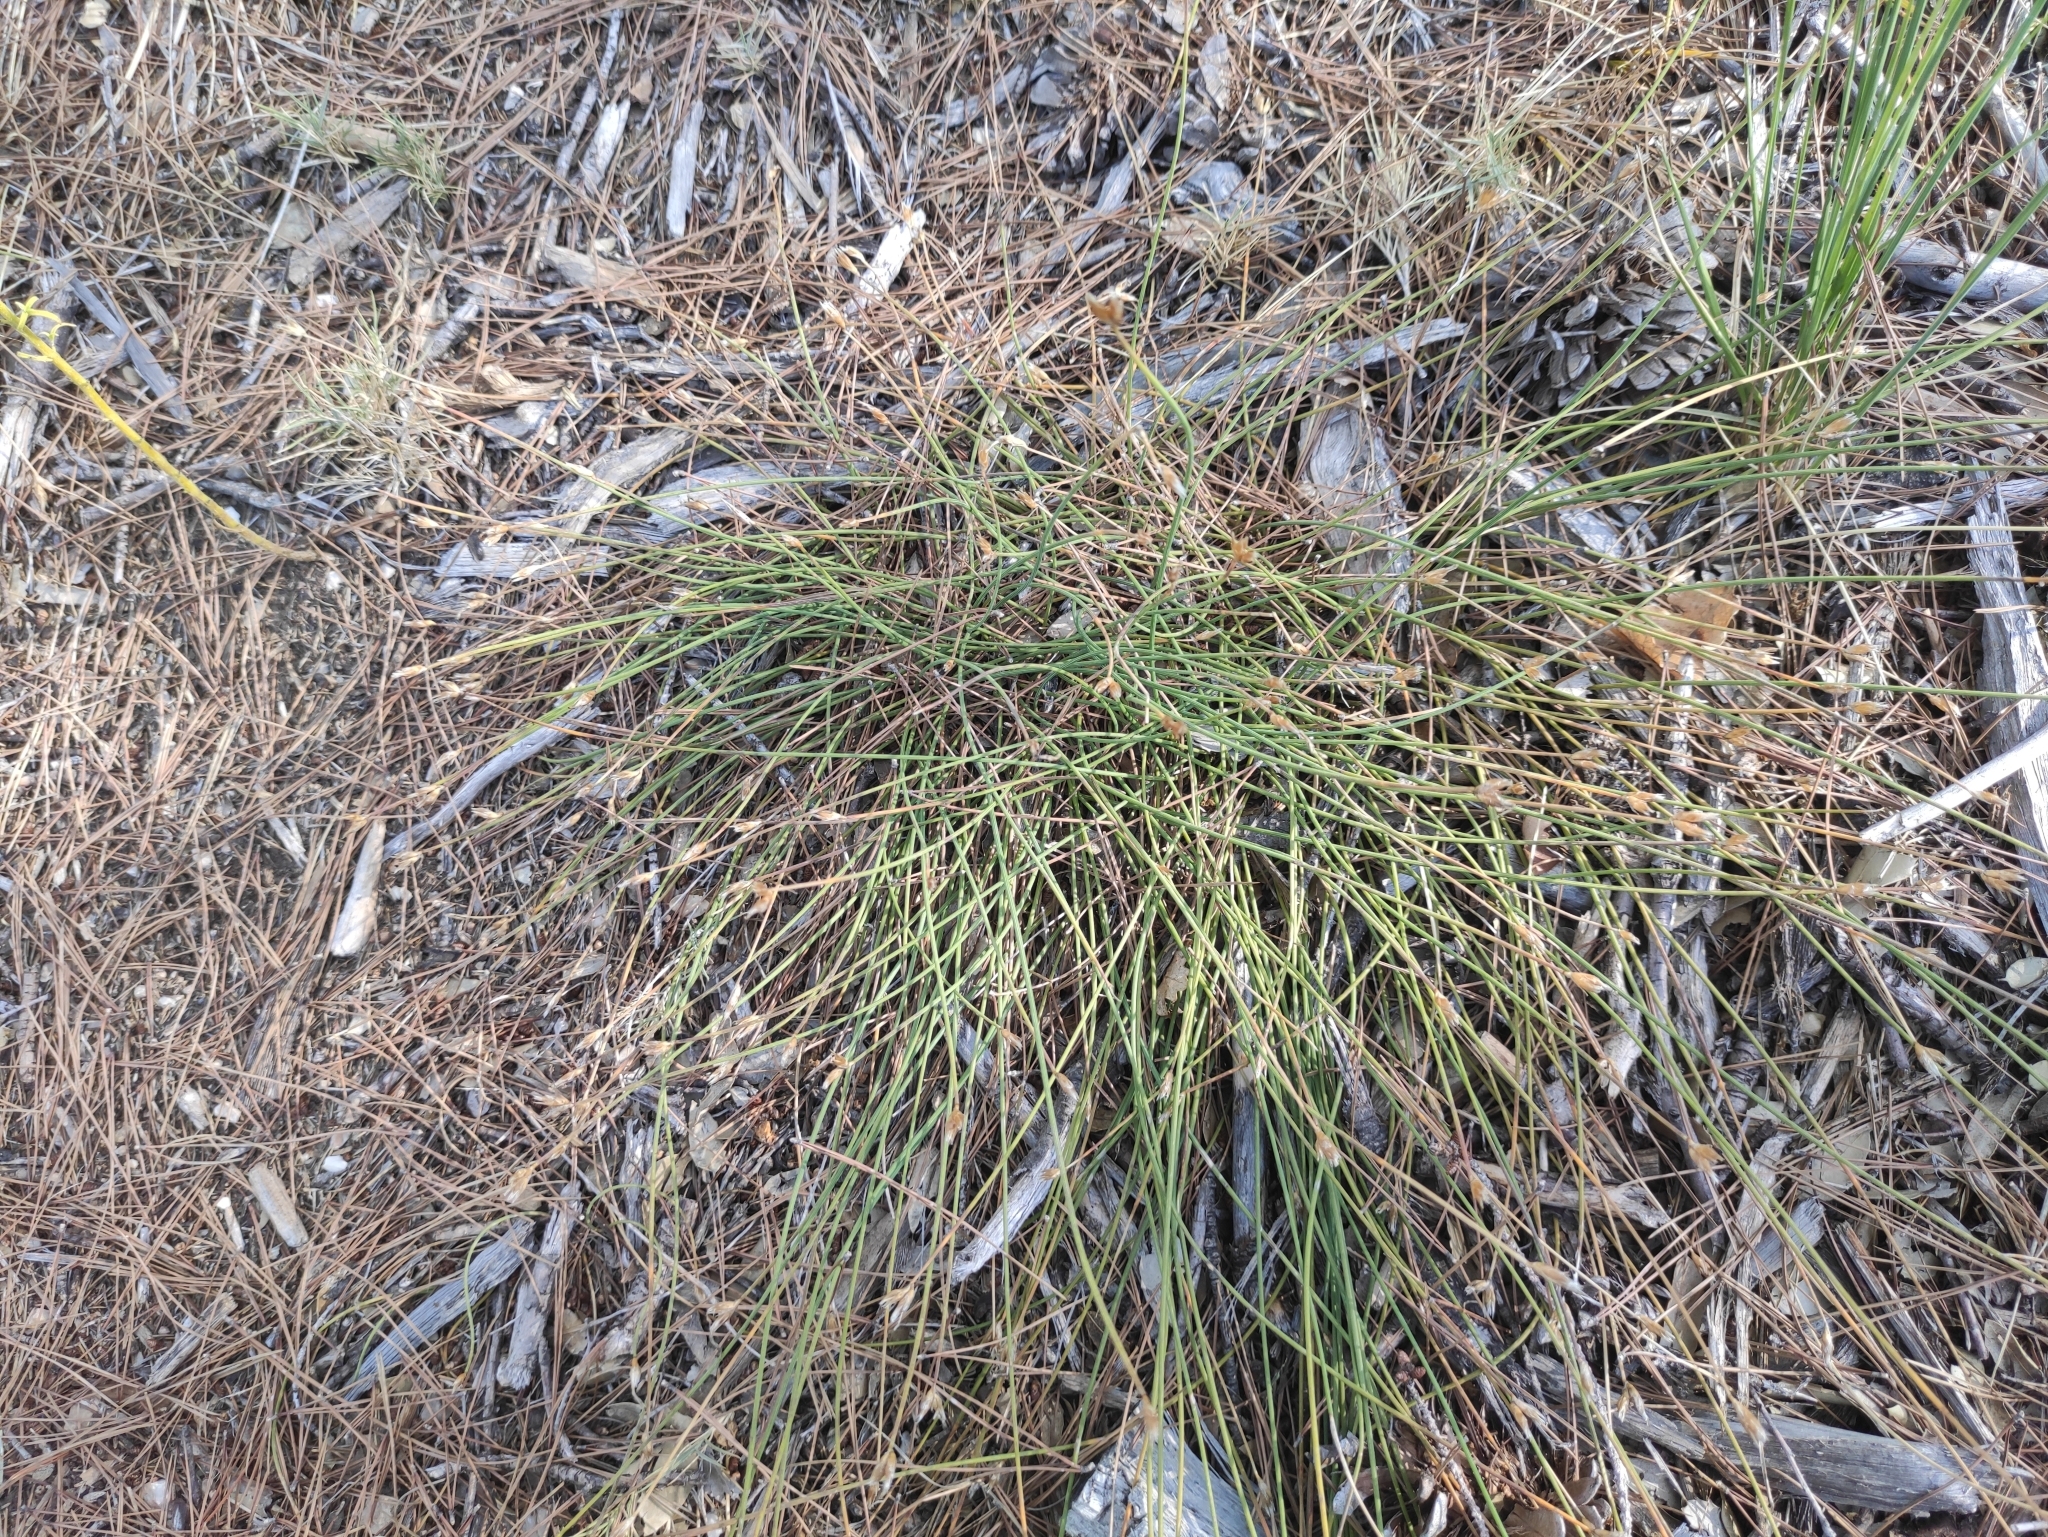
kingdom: Plantae
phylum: Tracheophyta
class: Liliopsida
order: Asparagales
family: Asparagaceae
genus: Aphyllanthes
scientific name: Aphyllanthes monspeliensis
